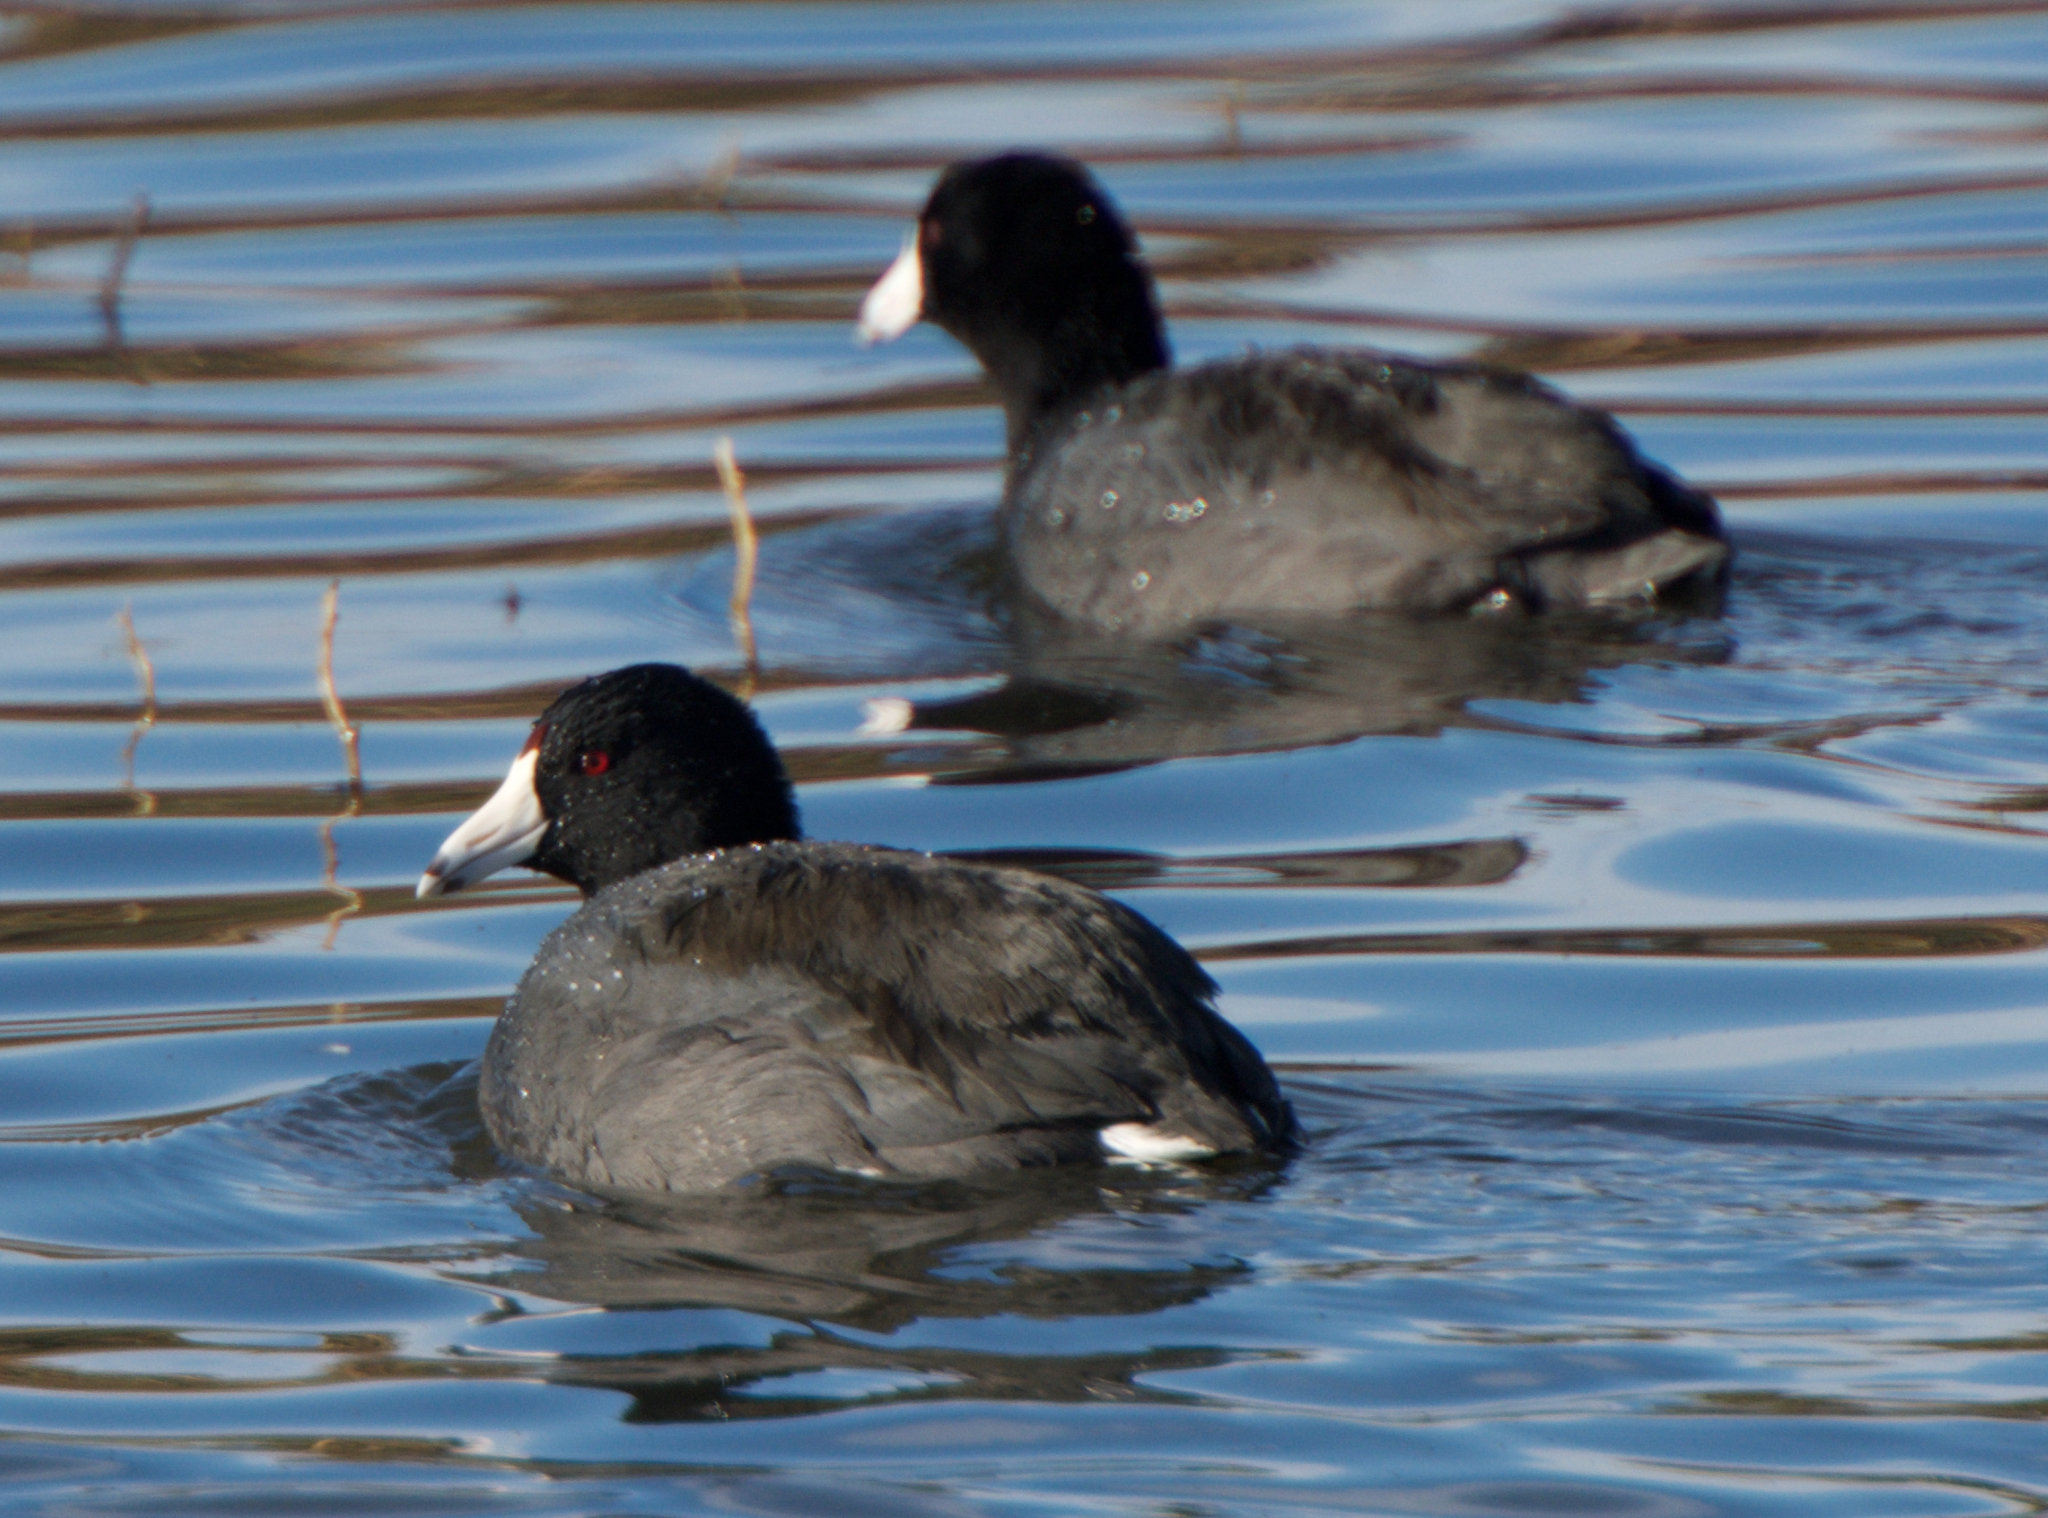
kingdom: Animalia
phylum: Chordata
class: Aves
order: Gruiformes
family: Rallidae
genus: Fulica
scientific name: Fulica americana
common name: American coot
